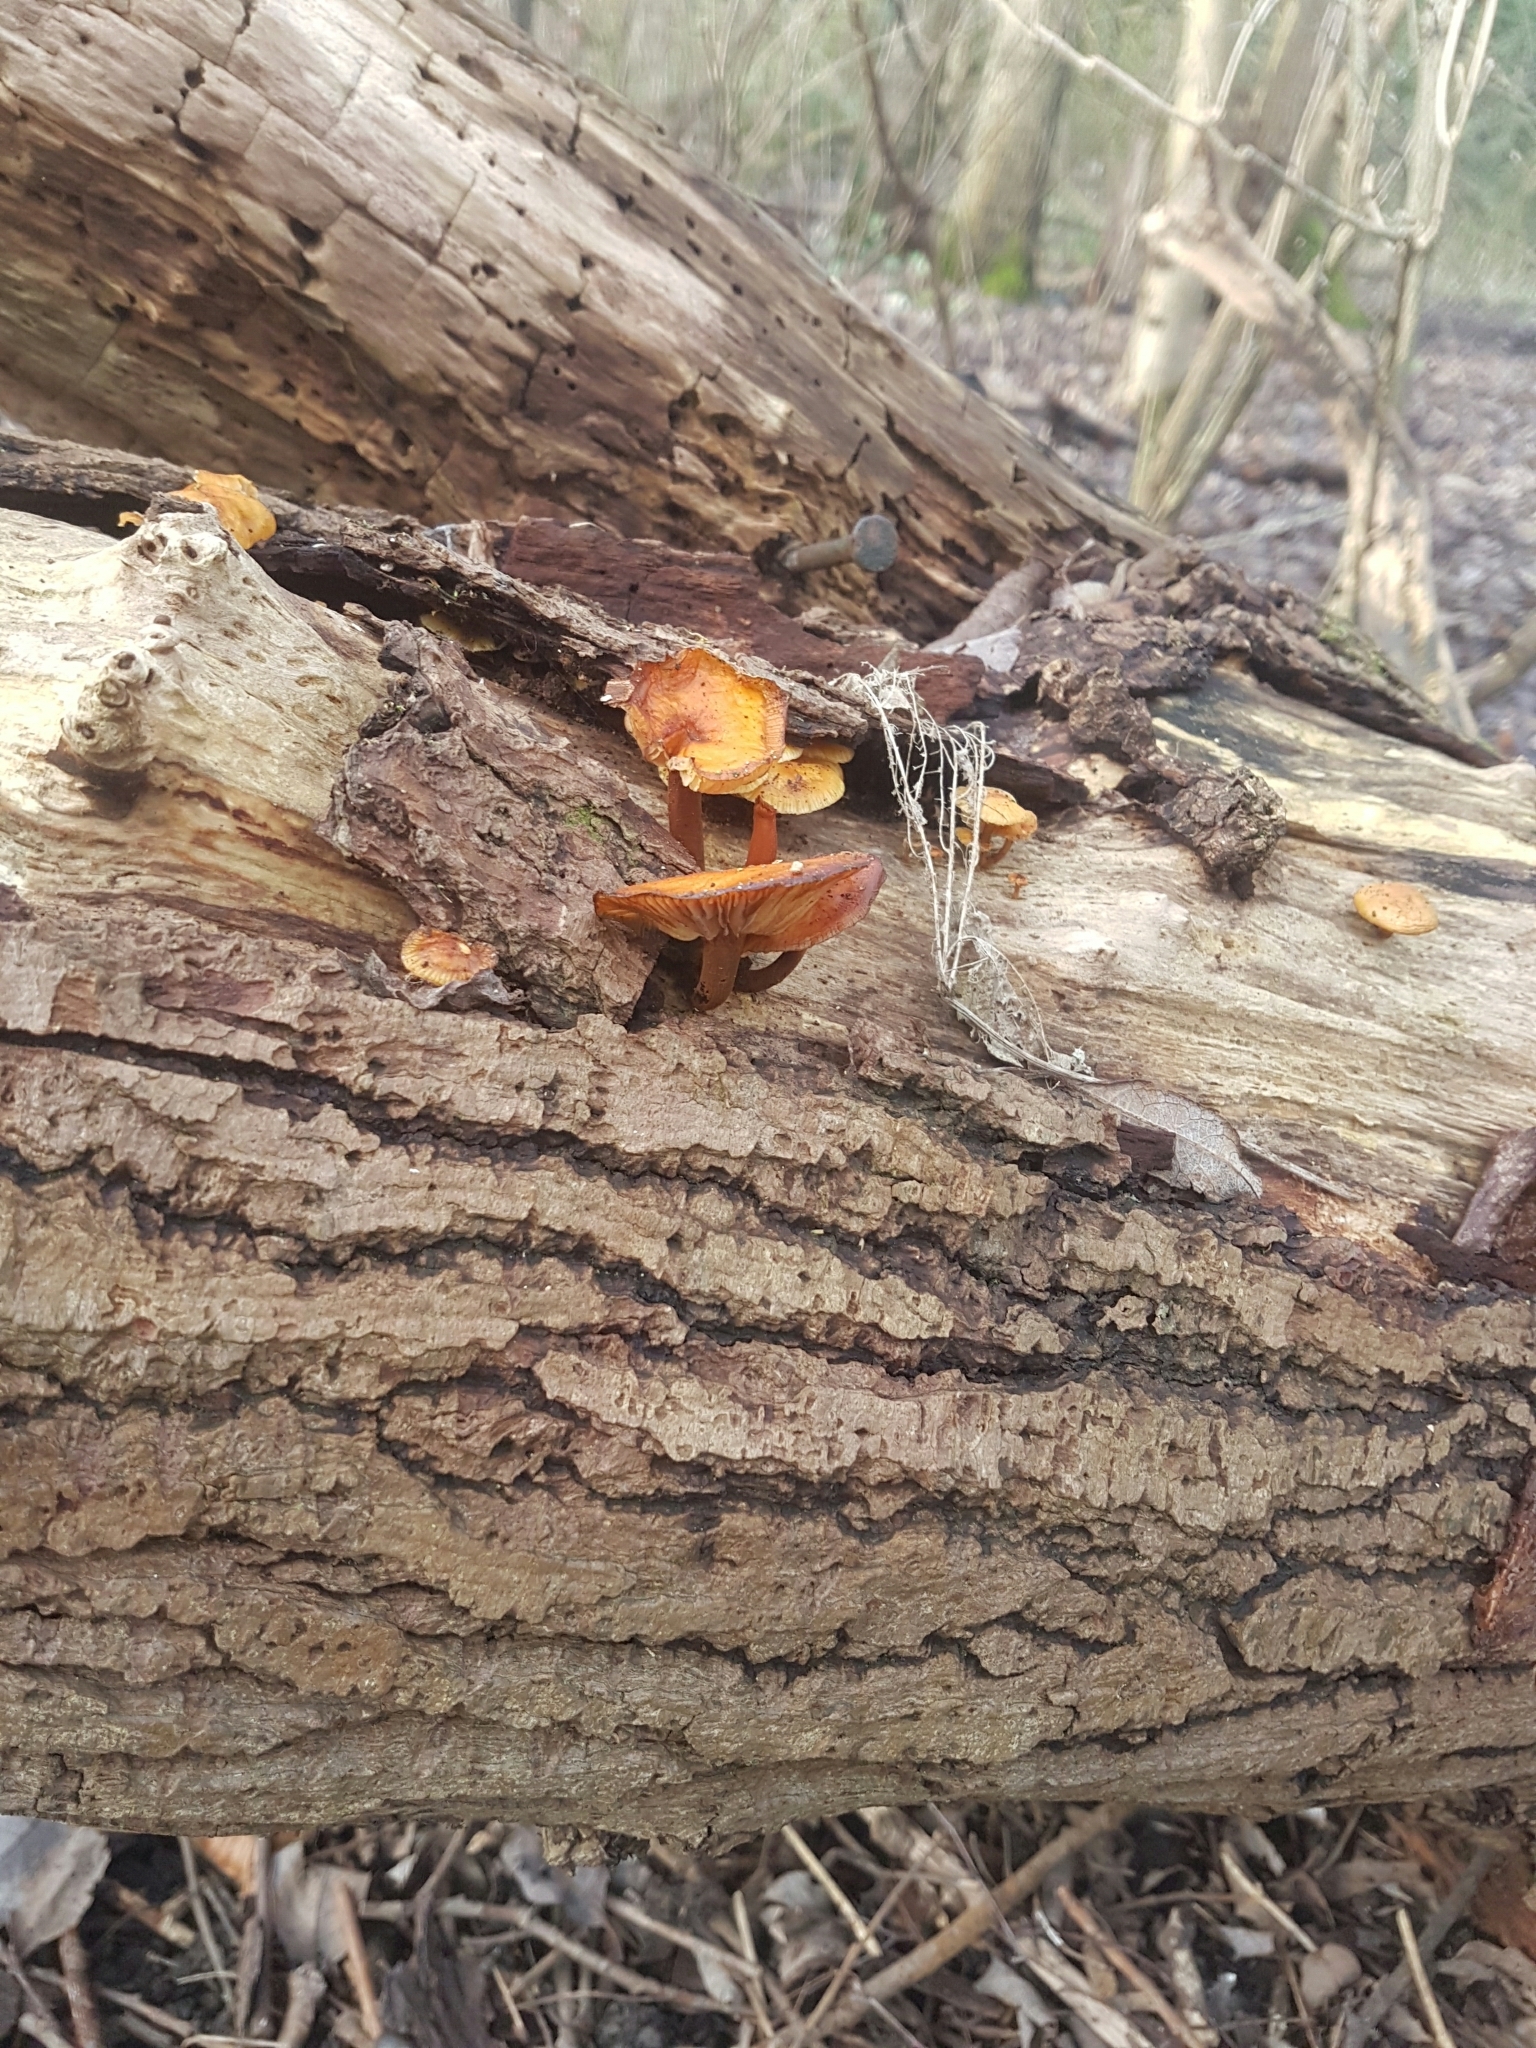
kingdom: Fungi
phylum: Basidiomycota
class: Agaricomycetes
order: Agaricales
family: Physalacriaceae
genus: Flammulina
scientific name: Flammulina
